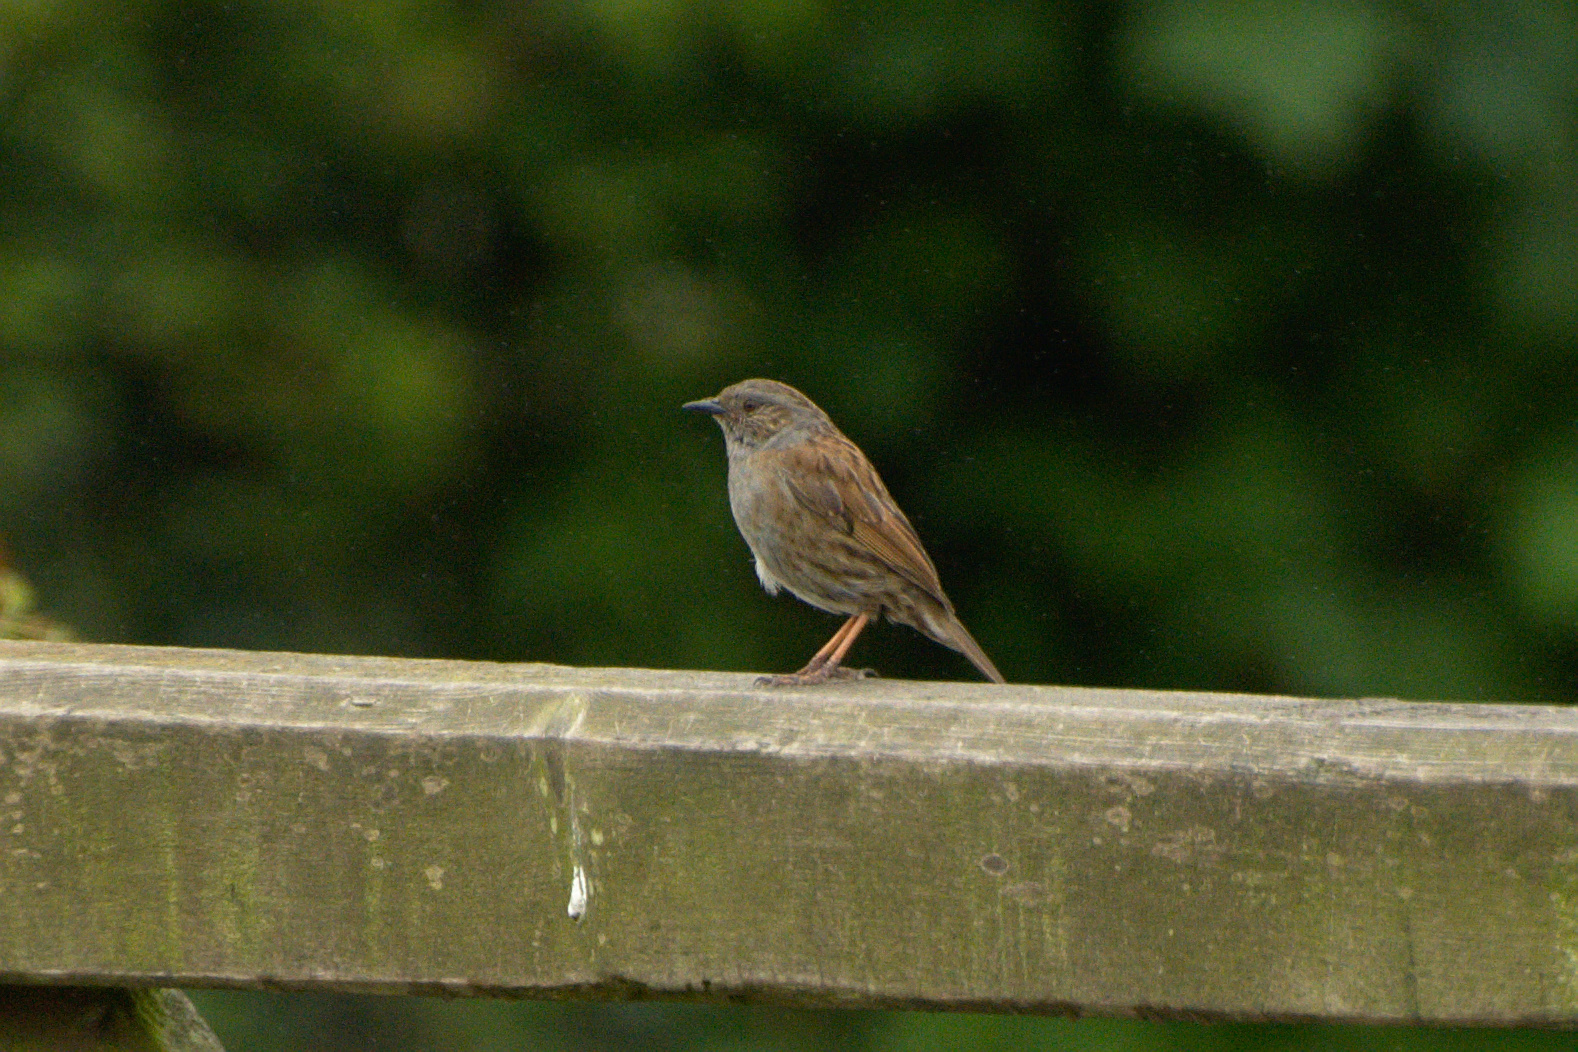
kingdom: Animalia
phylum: Chordata
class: Aves
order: Passeriformes
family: Prunellidae
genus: Prunella
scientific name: Prunella modularis
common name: Dunnock
